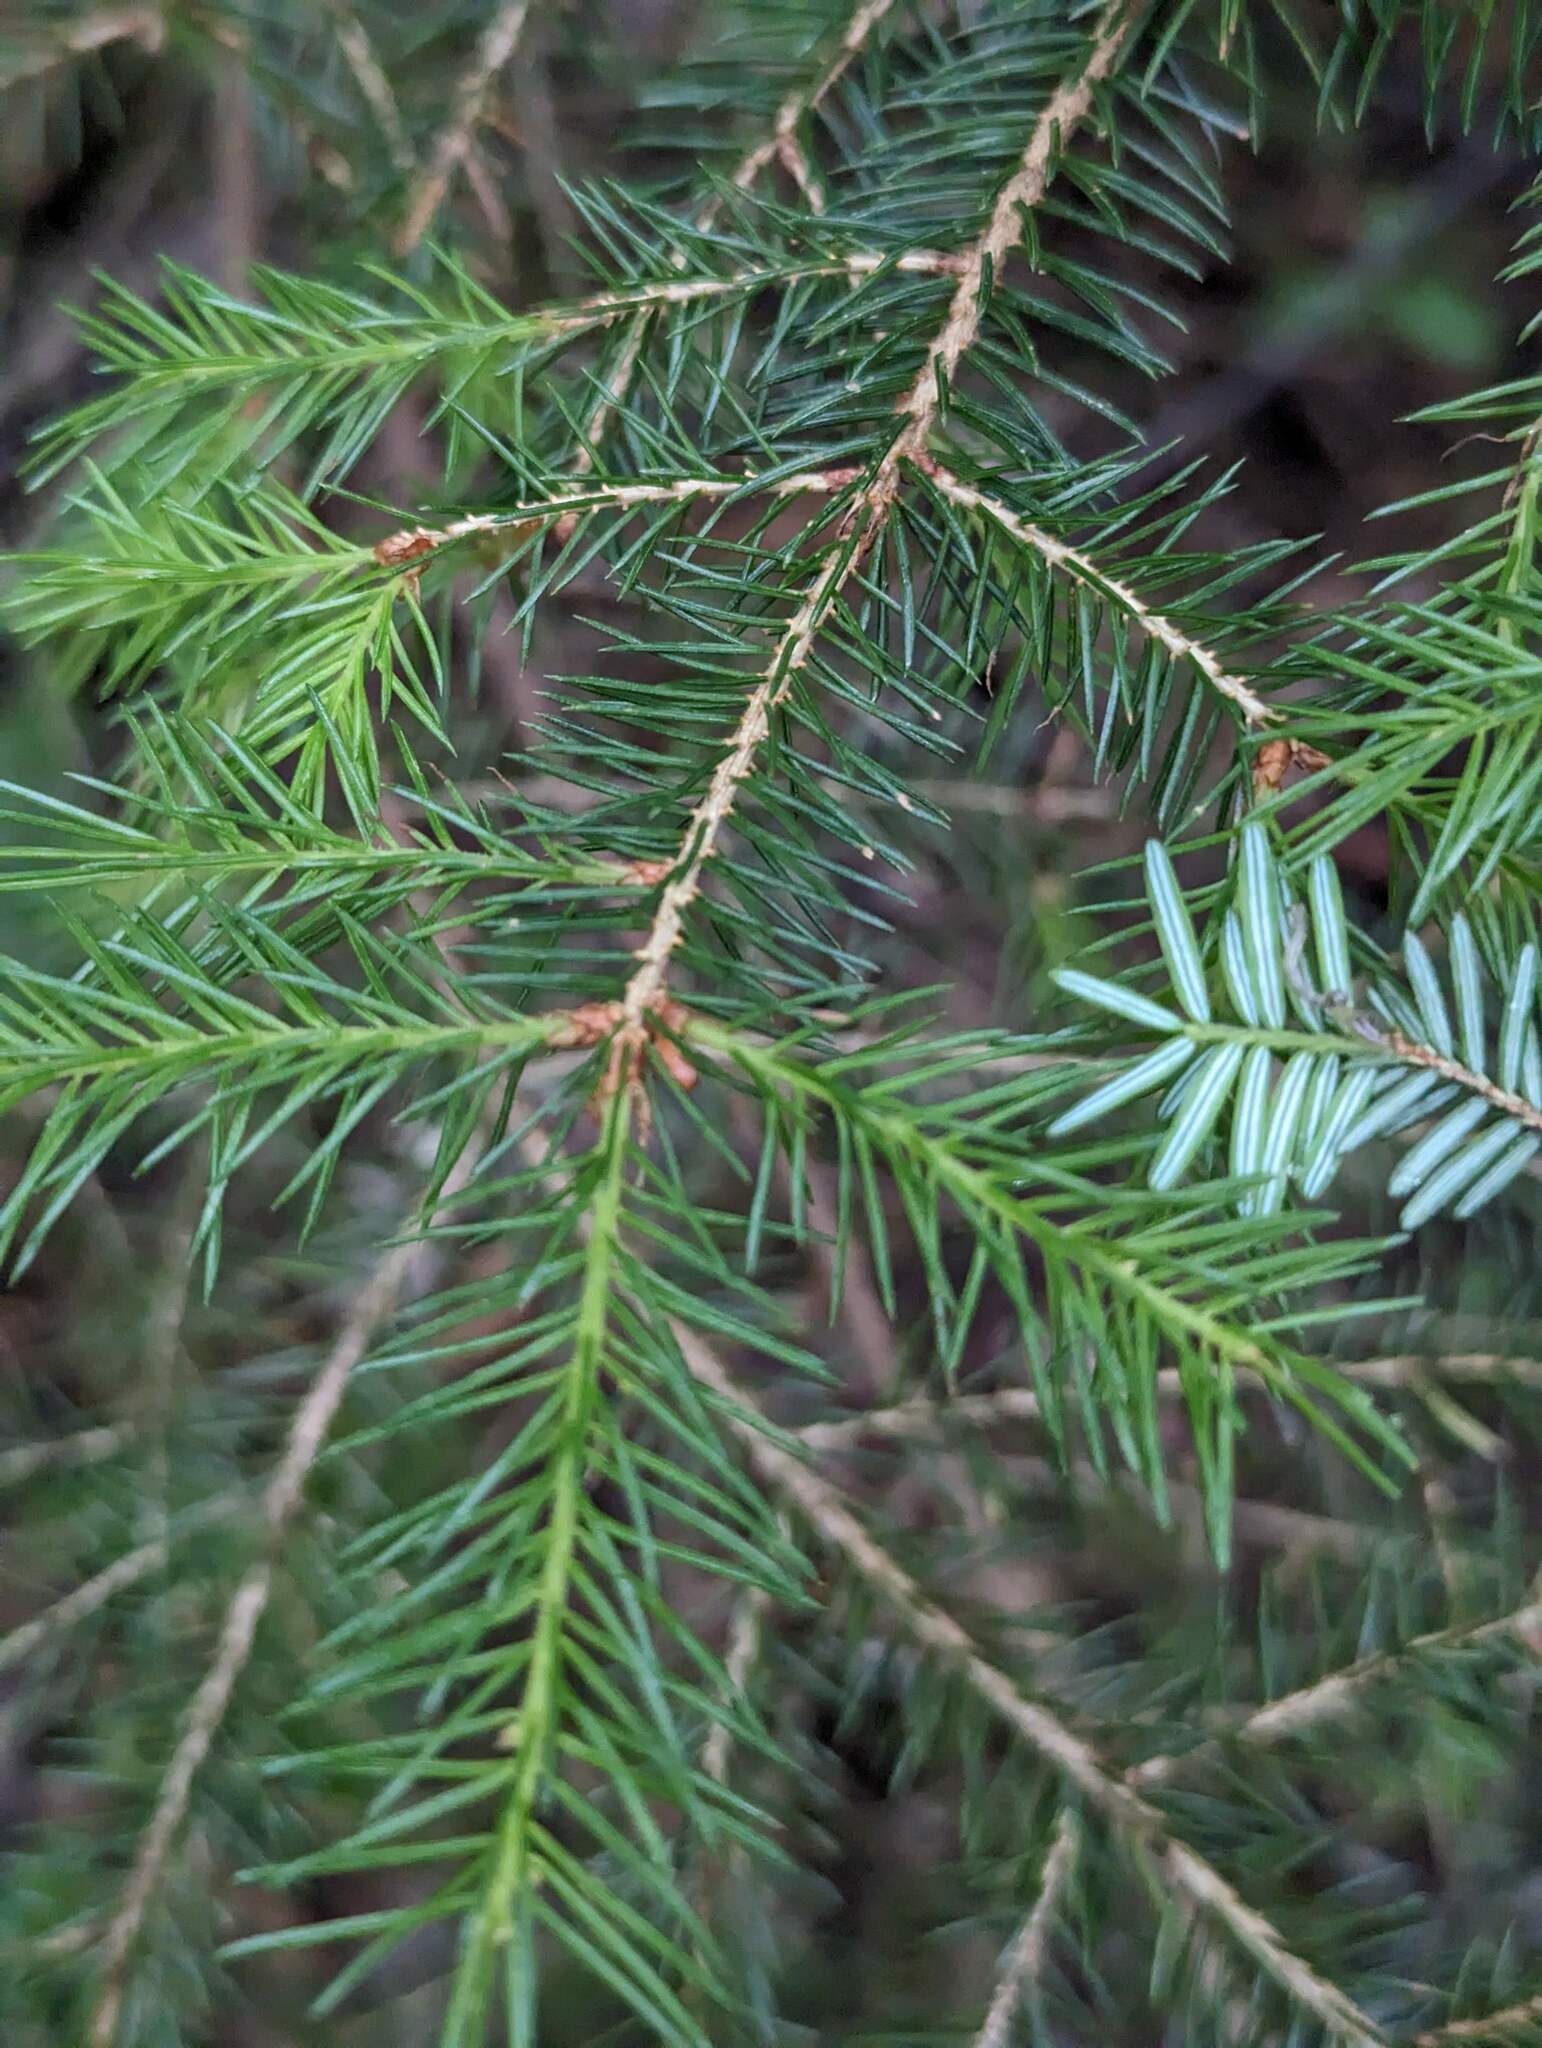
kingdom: Plantae
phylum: Tracheophyta
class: Pinopsida
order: Pinales
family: Pinaceae
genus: Picea
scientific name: Picea rubens
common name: Red spruce
